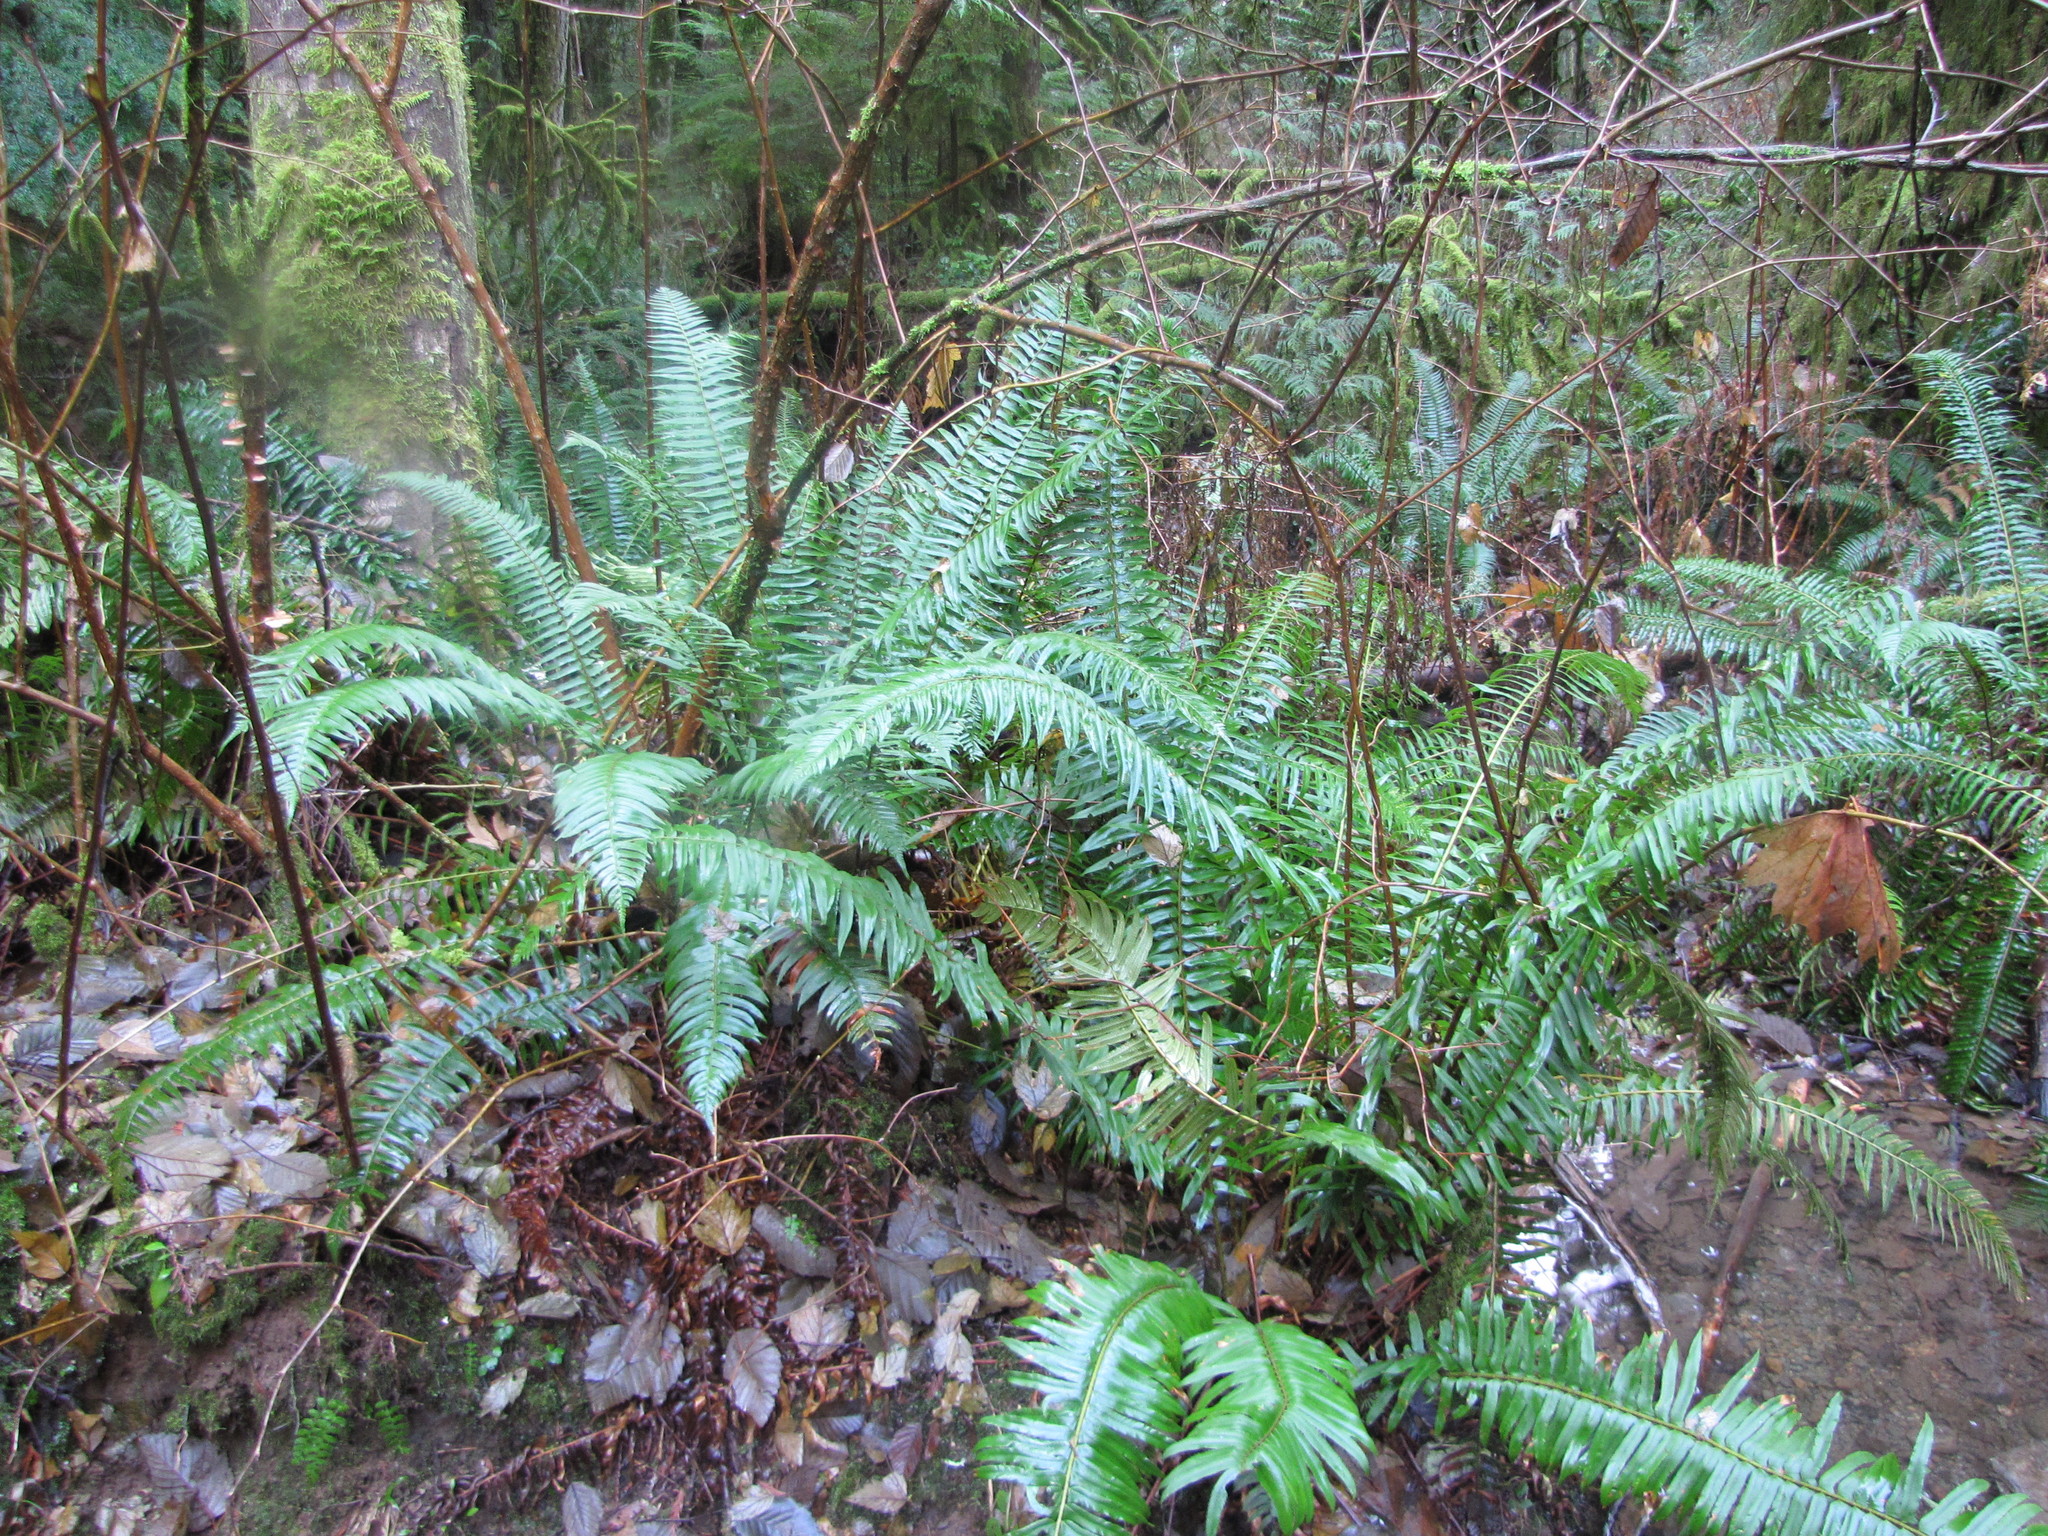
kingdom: Plantae
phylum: Tracheophyta
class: Polypodiopsida
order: Polypodiales
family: Dryopteridaceae
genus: Polystichum
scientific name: Polystichum munitum
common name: Western sword-fern
